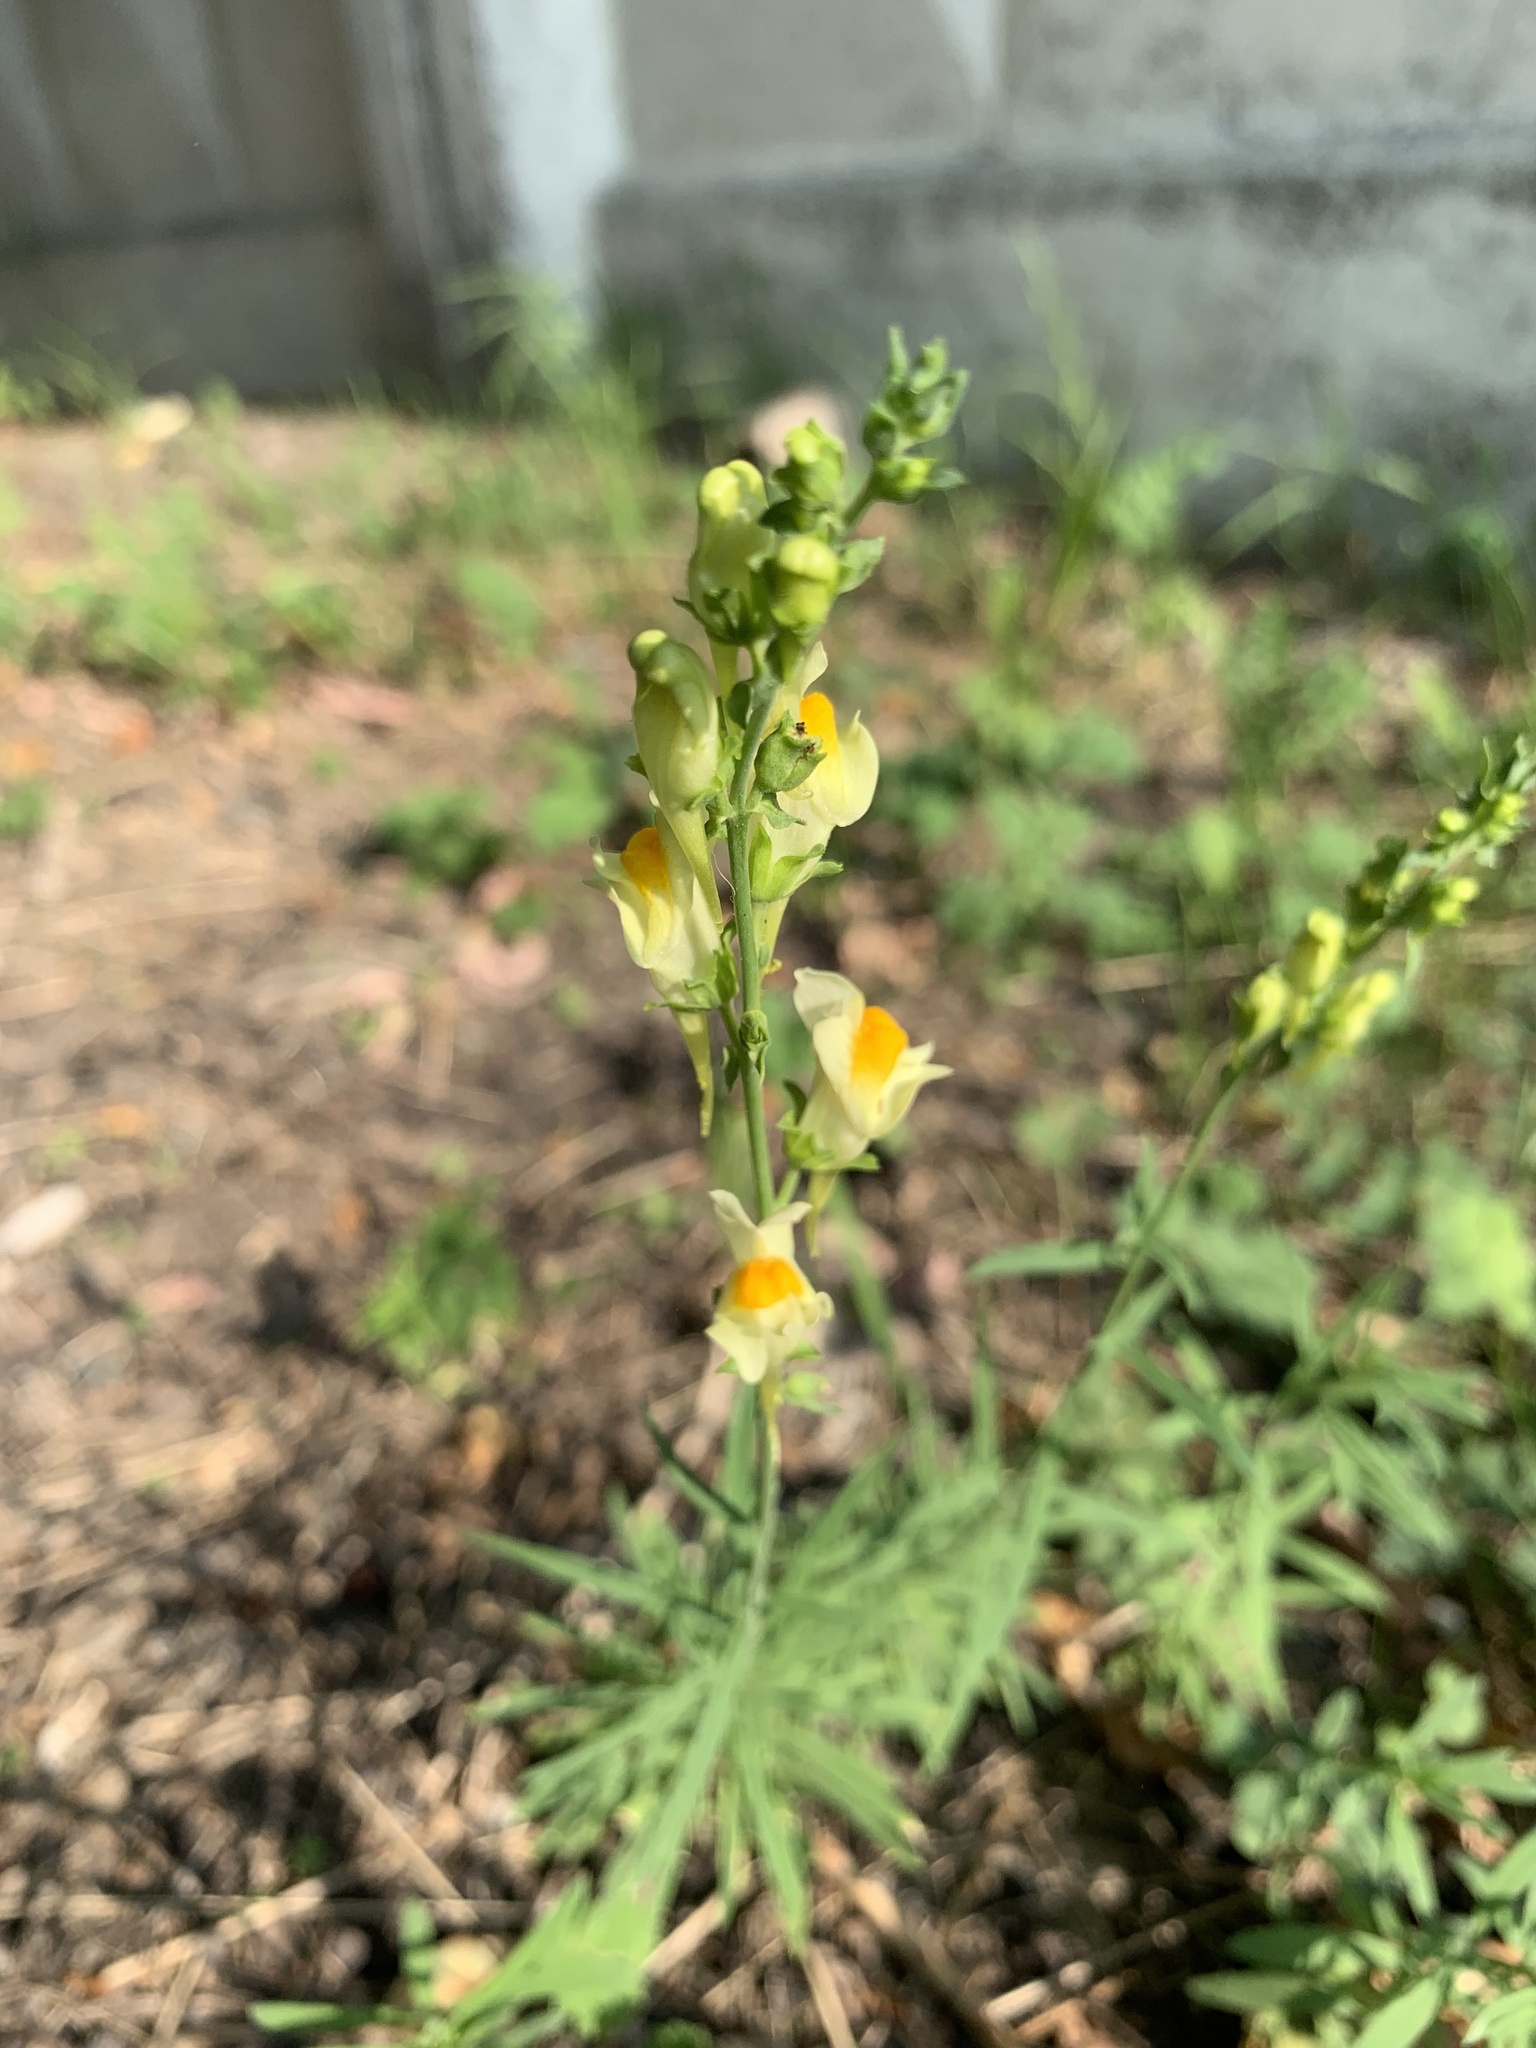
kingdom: Plantae
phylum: Tracheophyta
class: Magnoliopsida
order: Lamiales
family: Plantaginaceae
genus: Linaria
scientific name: Linaria vulgaris
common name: Butter and eggs
